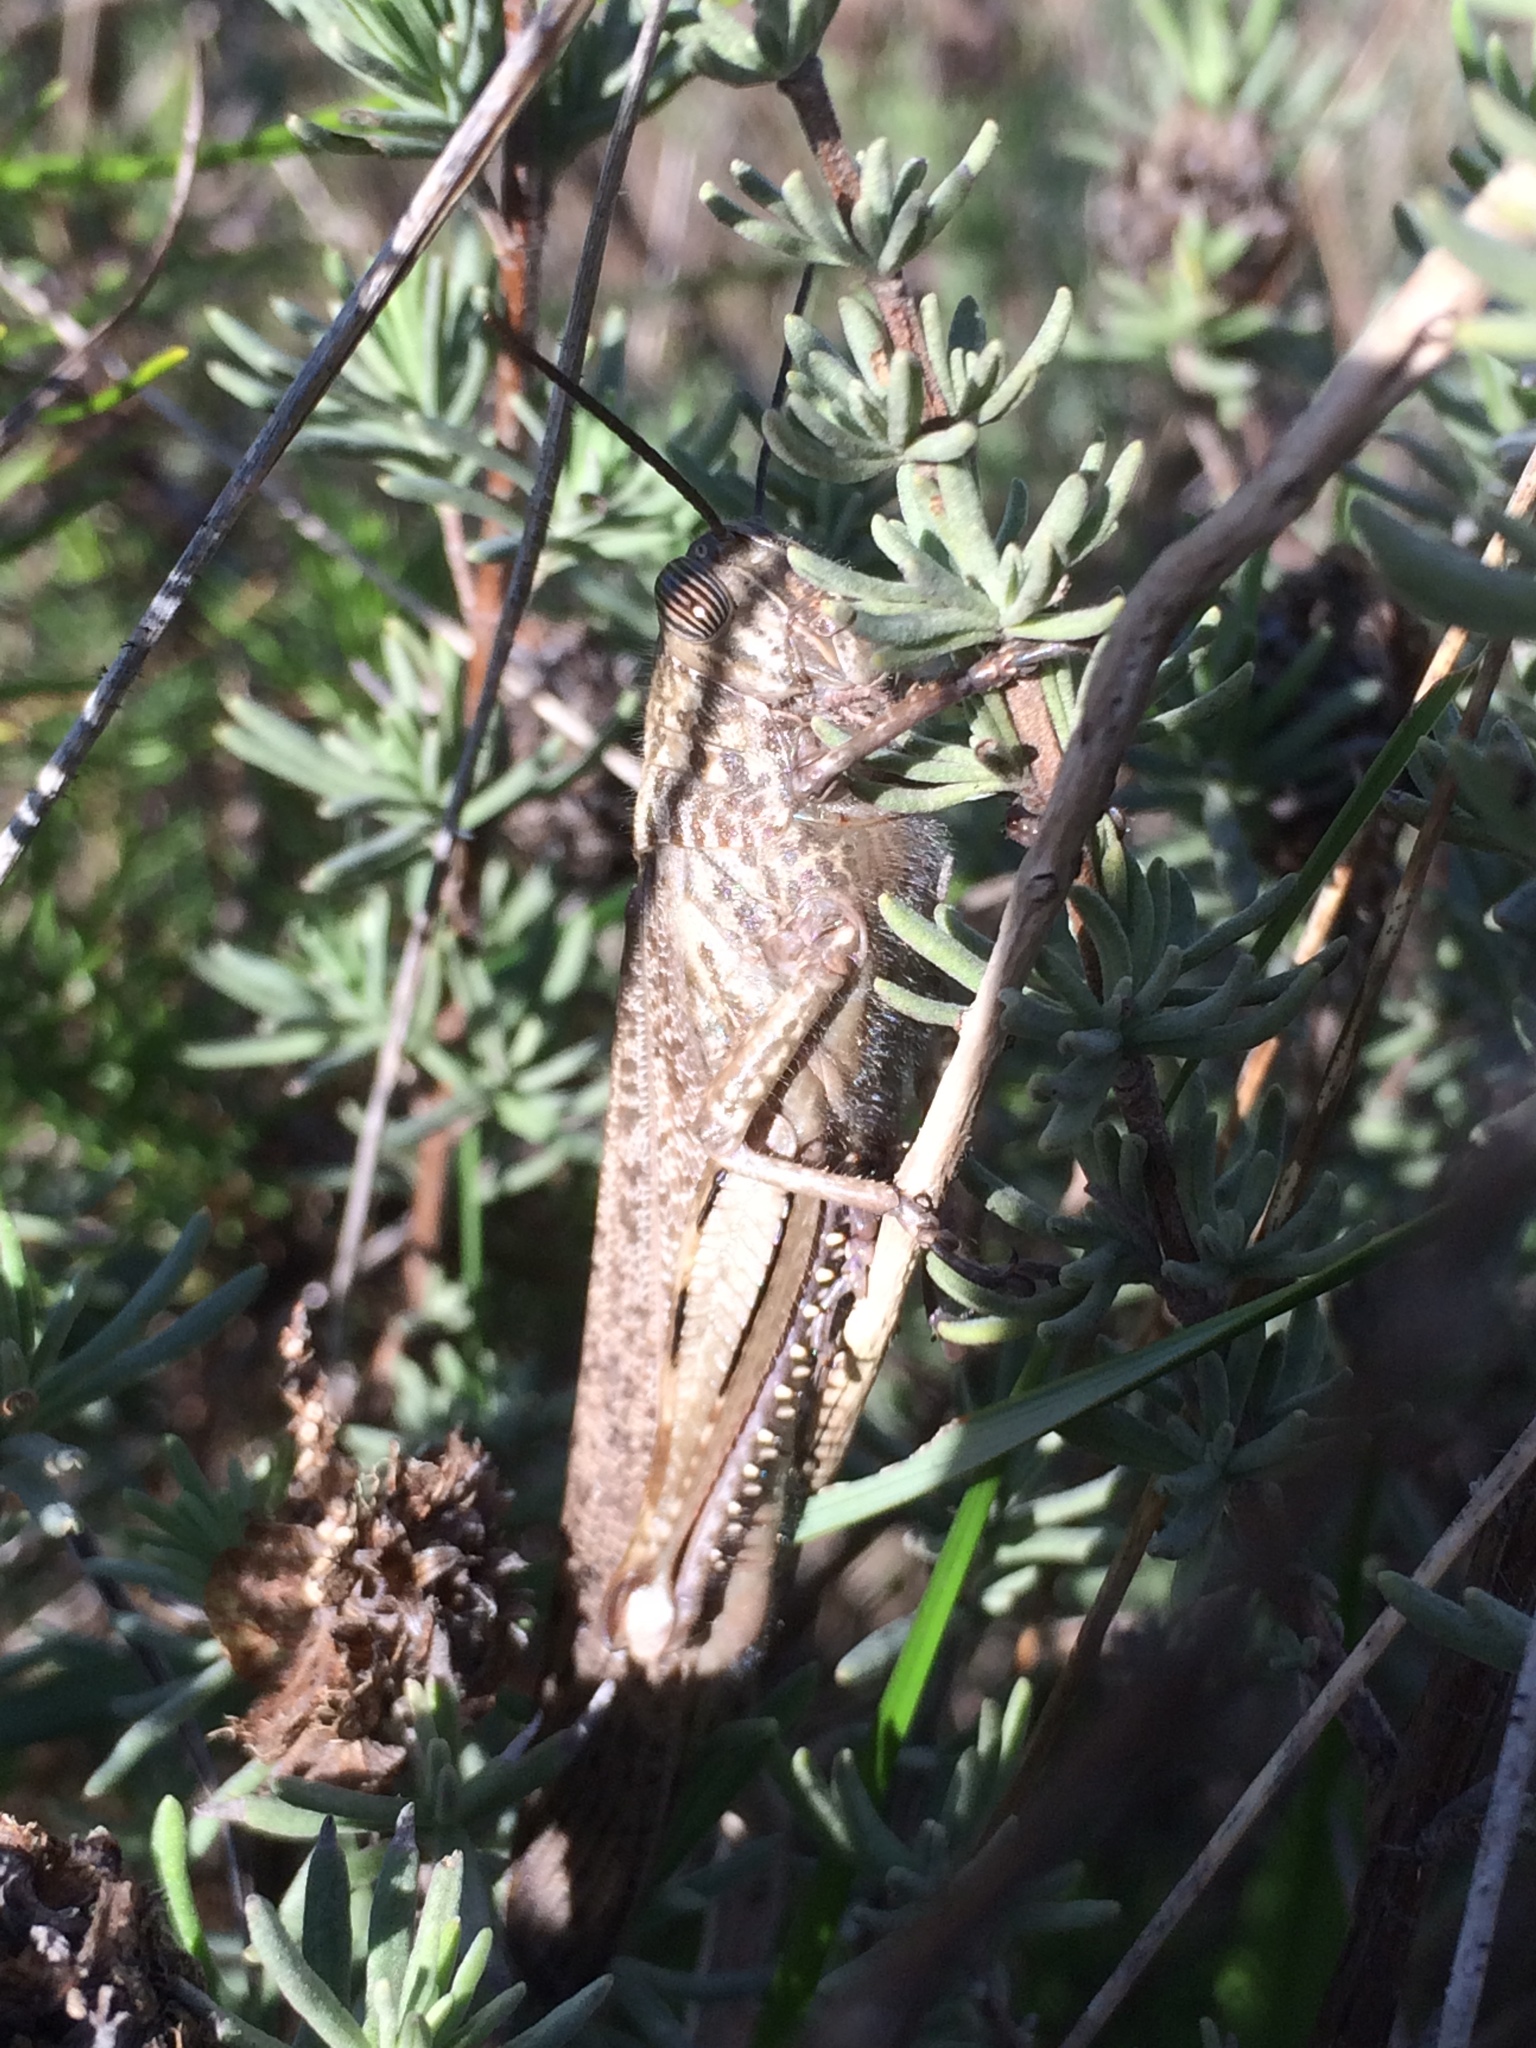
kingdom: Animalia
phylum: Arthropoda
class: Insecta
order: Orthoptera
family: Acrididae
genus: Anacridium
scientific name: Anacridium aegyptium
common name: Egyptian grasshopper
